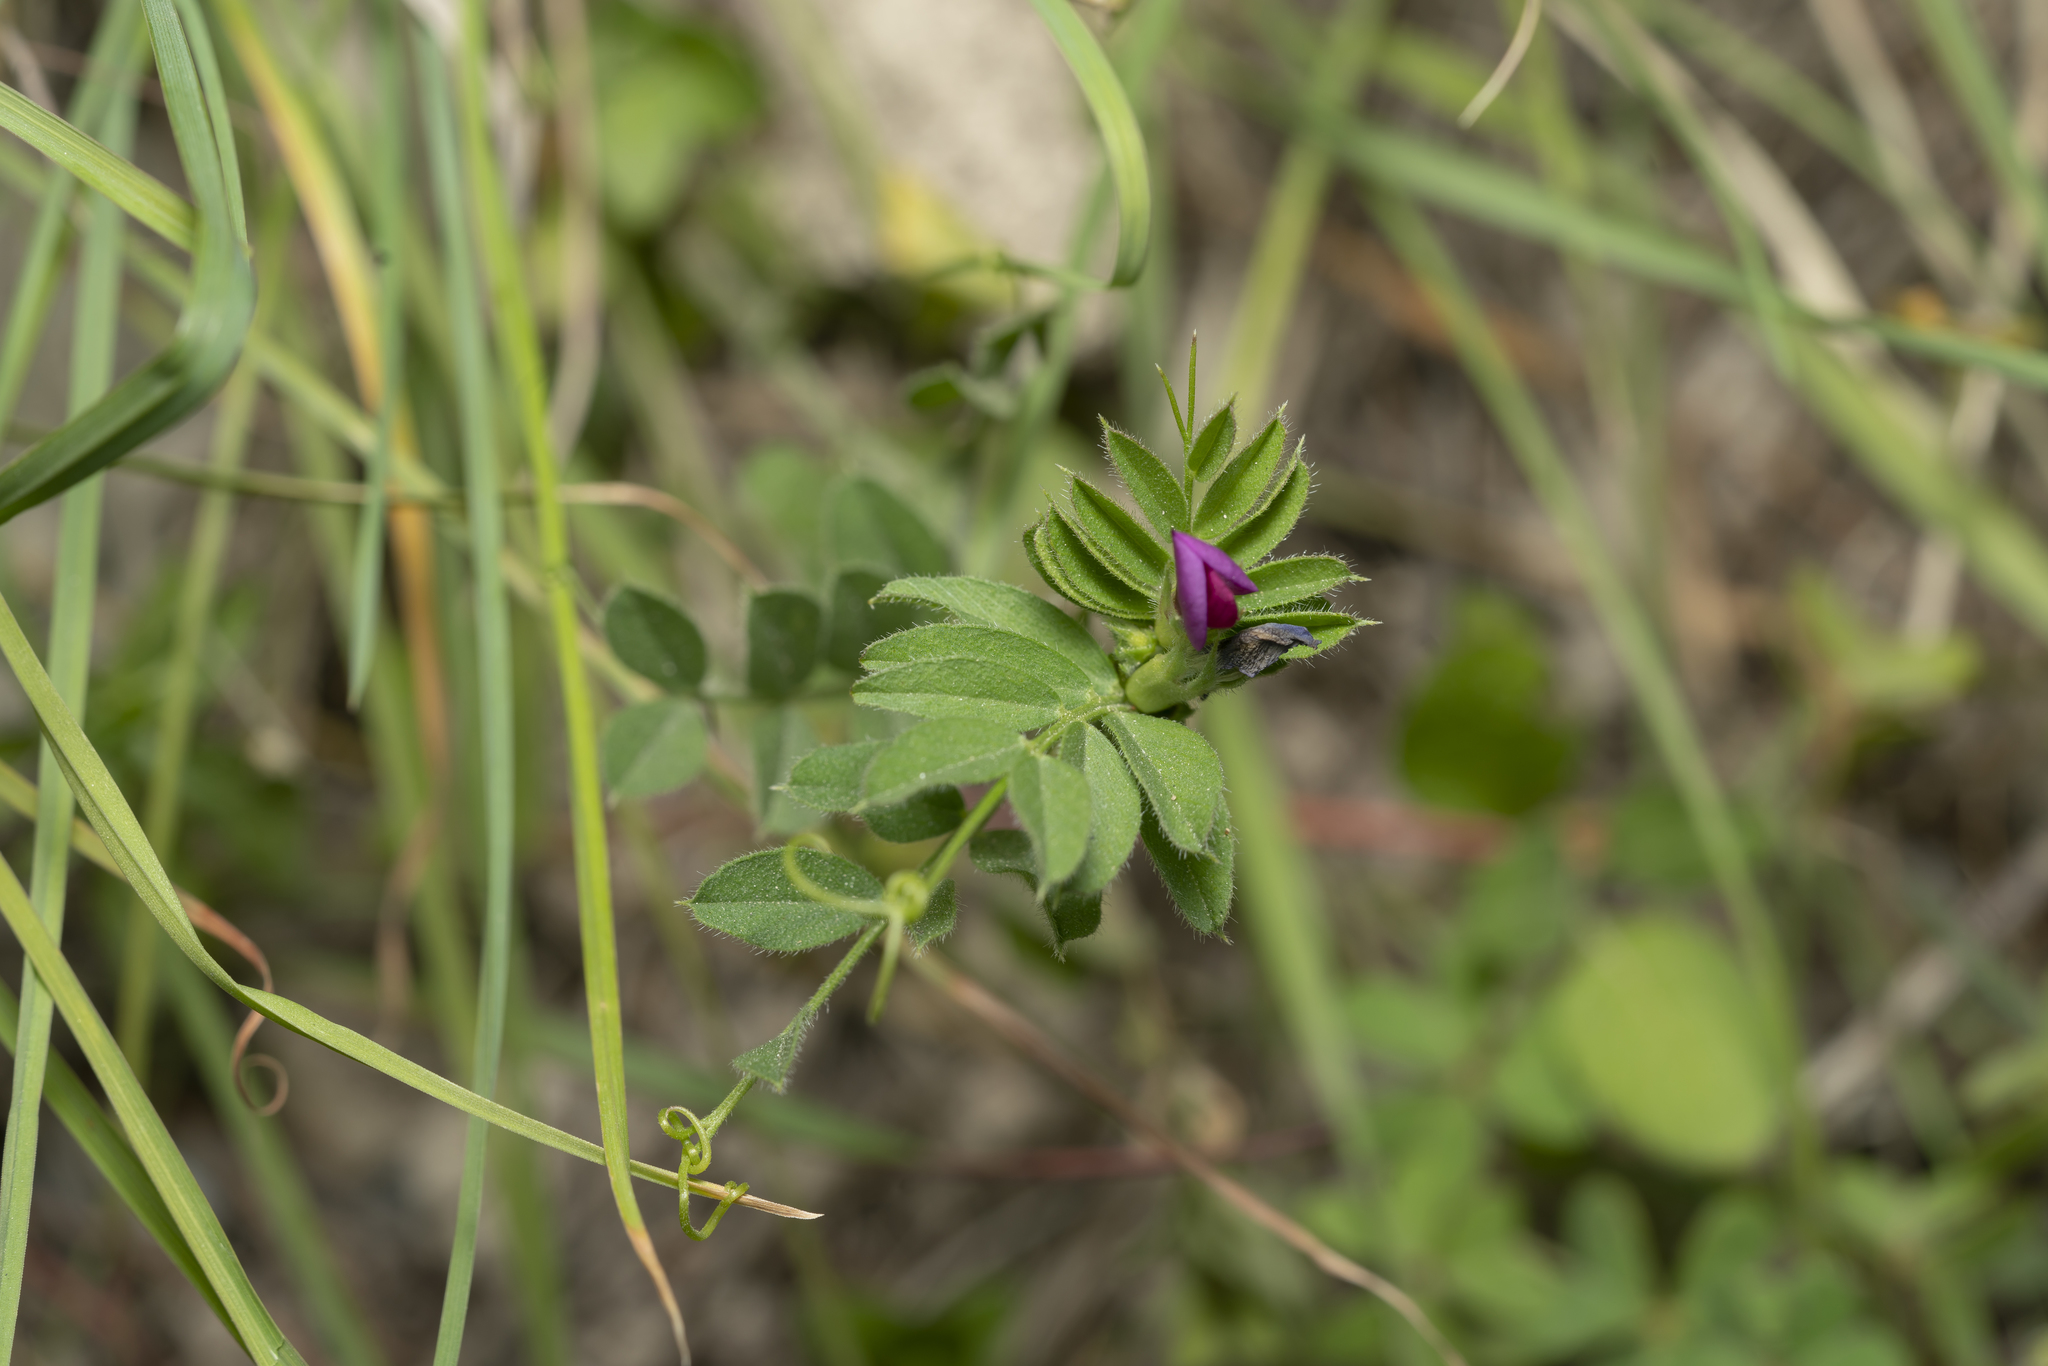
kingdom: Plantae
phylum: Tracheophyta
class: Magnoliopsida
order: Fabales
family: Fabaceae
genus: Vicia
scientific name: Vicia sativa
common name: Garden vetch
